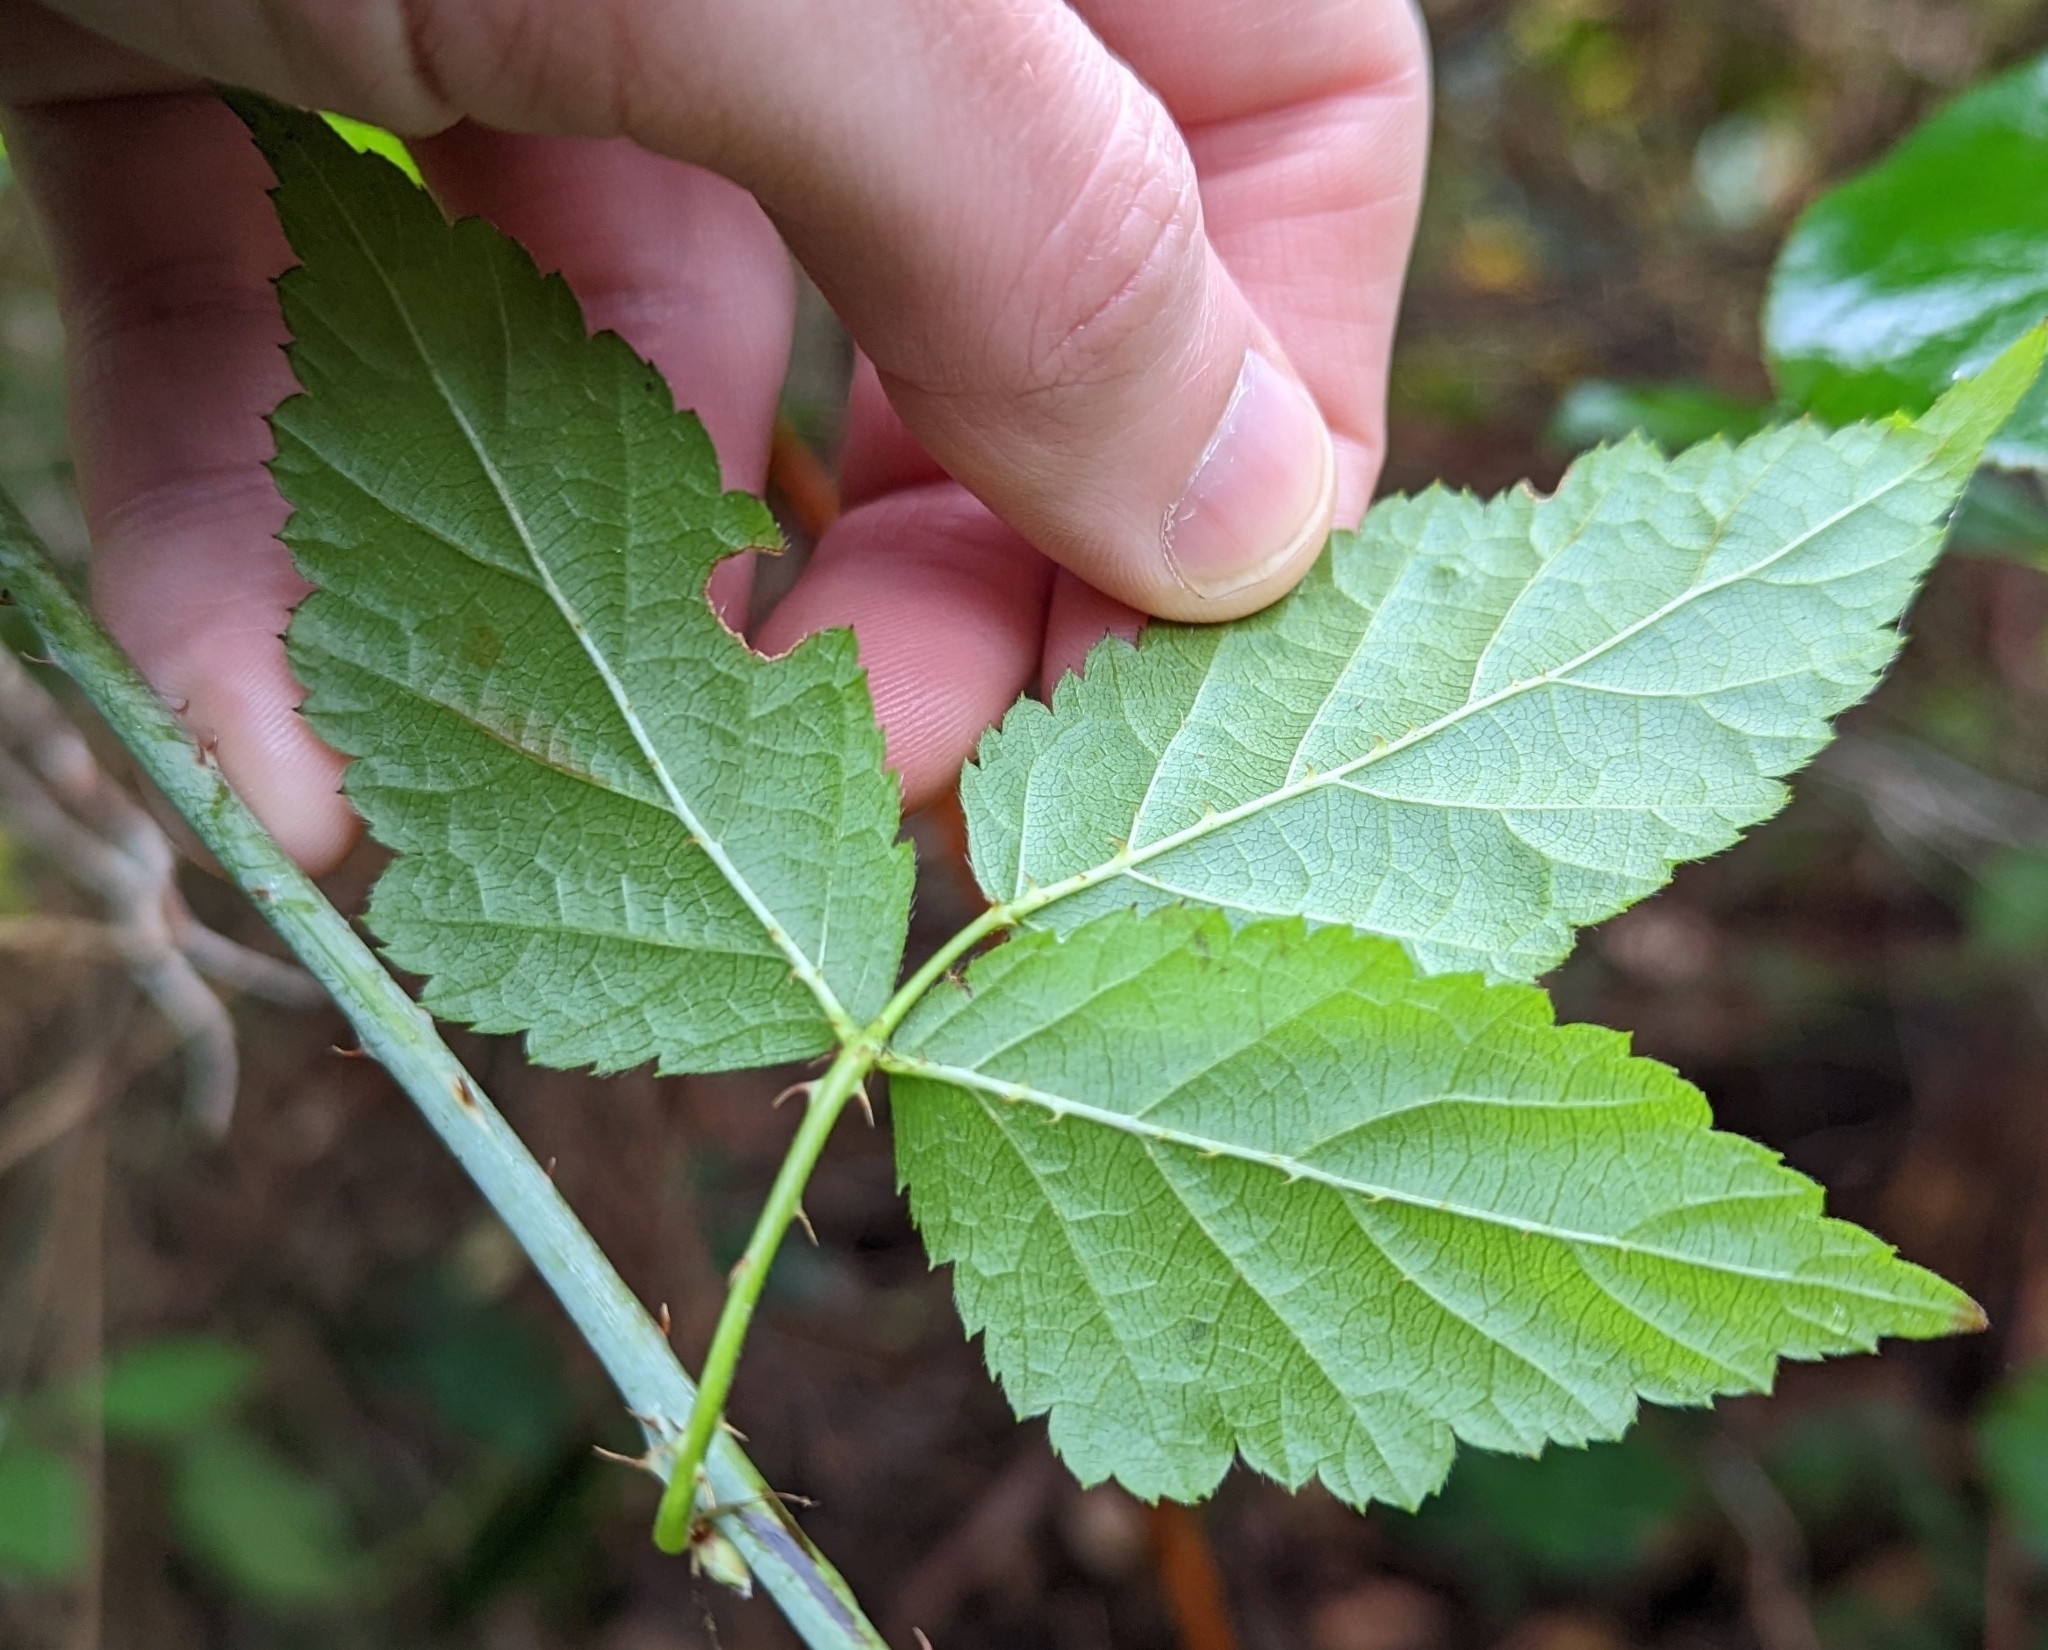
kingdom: Plantae
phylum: Tracheophyta
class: Magnoliopsida
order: Rosales
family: Rosaceae
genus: Rubus
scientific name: Rubus ursinus
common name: Pacific blackberry
